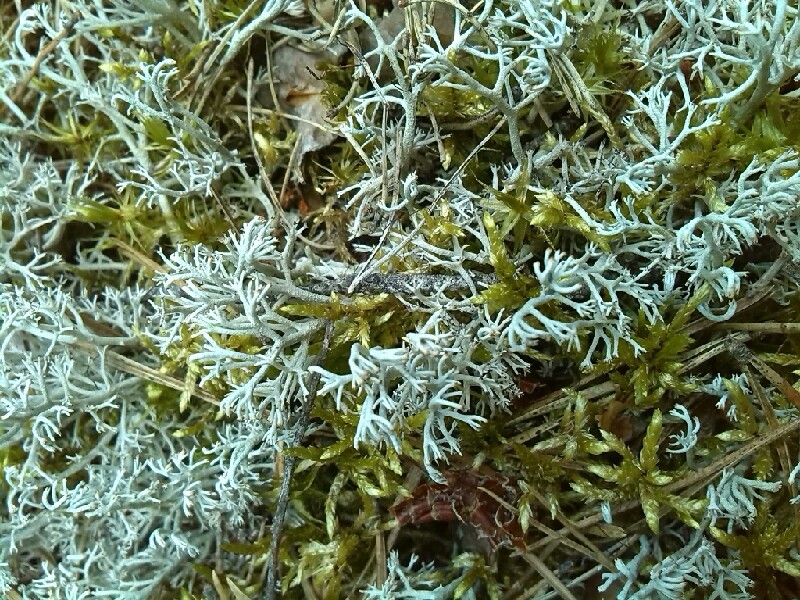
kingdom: Fungi
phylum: Ascomycota
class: Lecanoromycetes
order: Lecanorales
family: Cladoniaceae
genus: Cladonia
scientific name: Cladonia rangiferina
